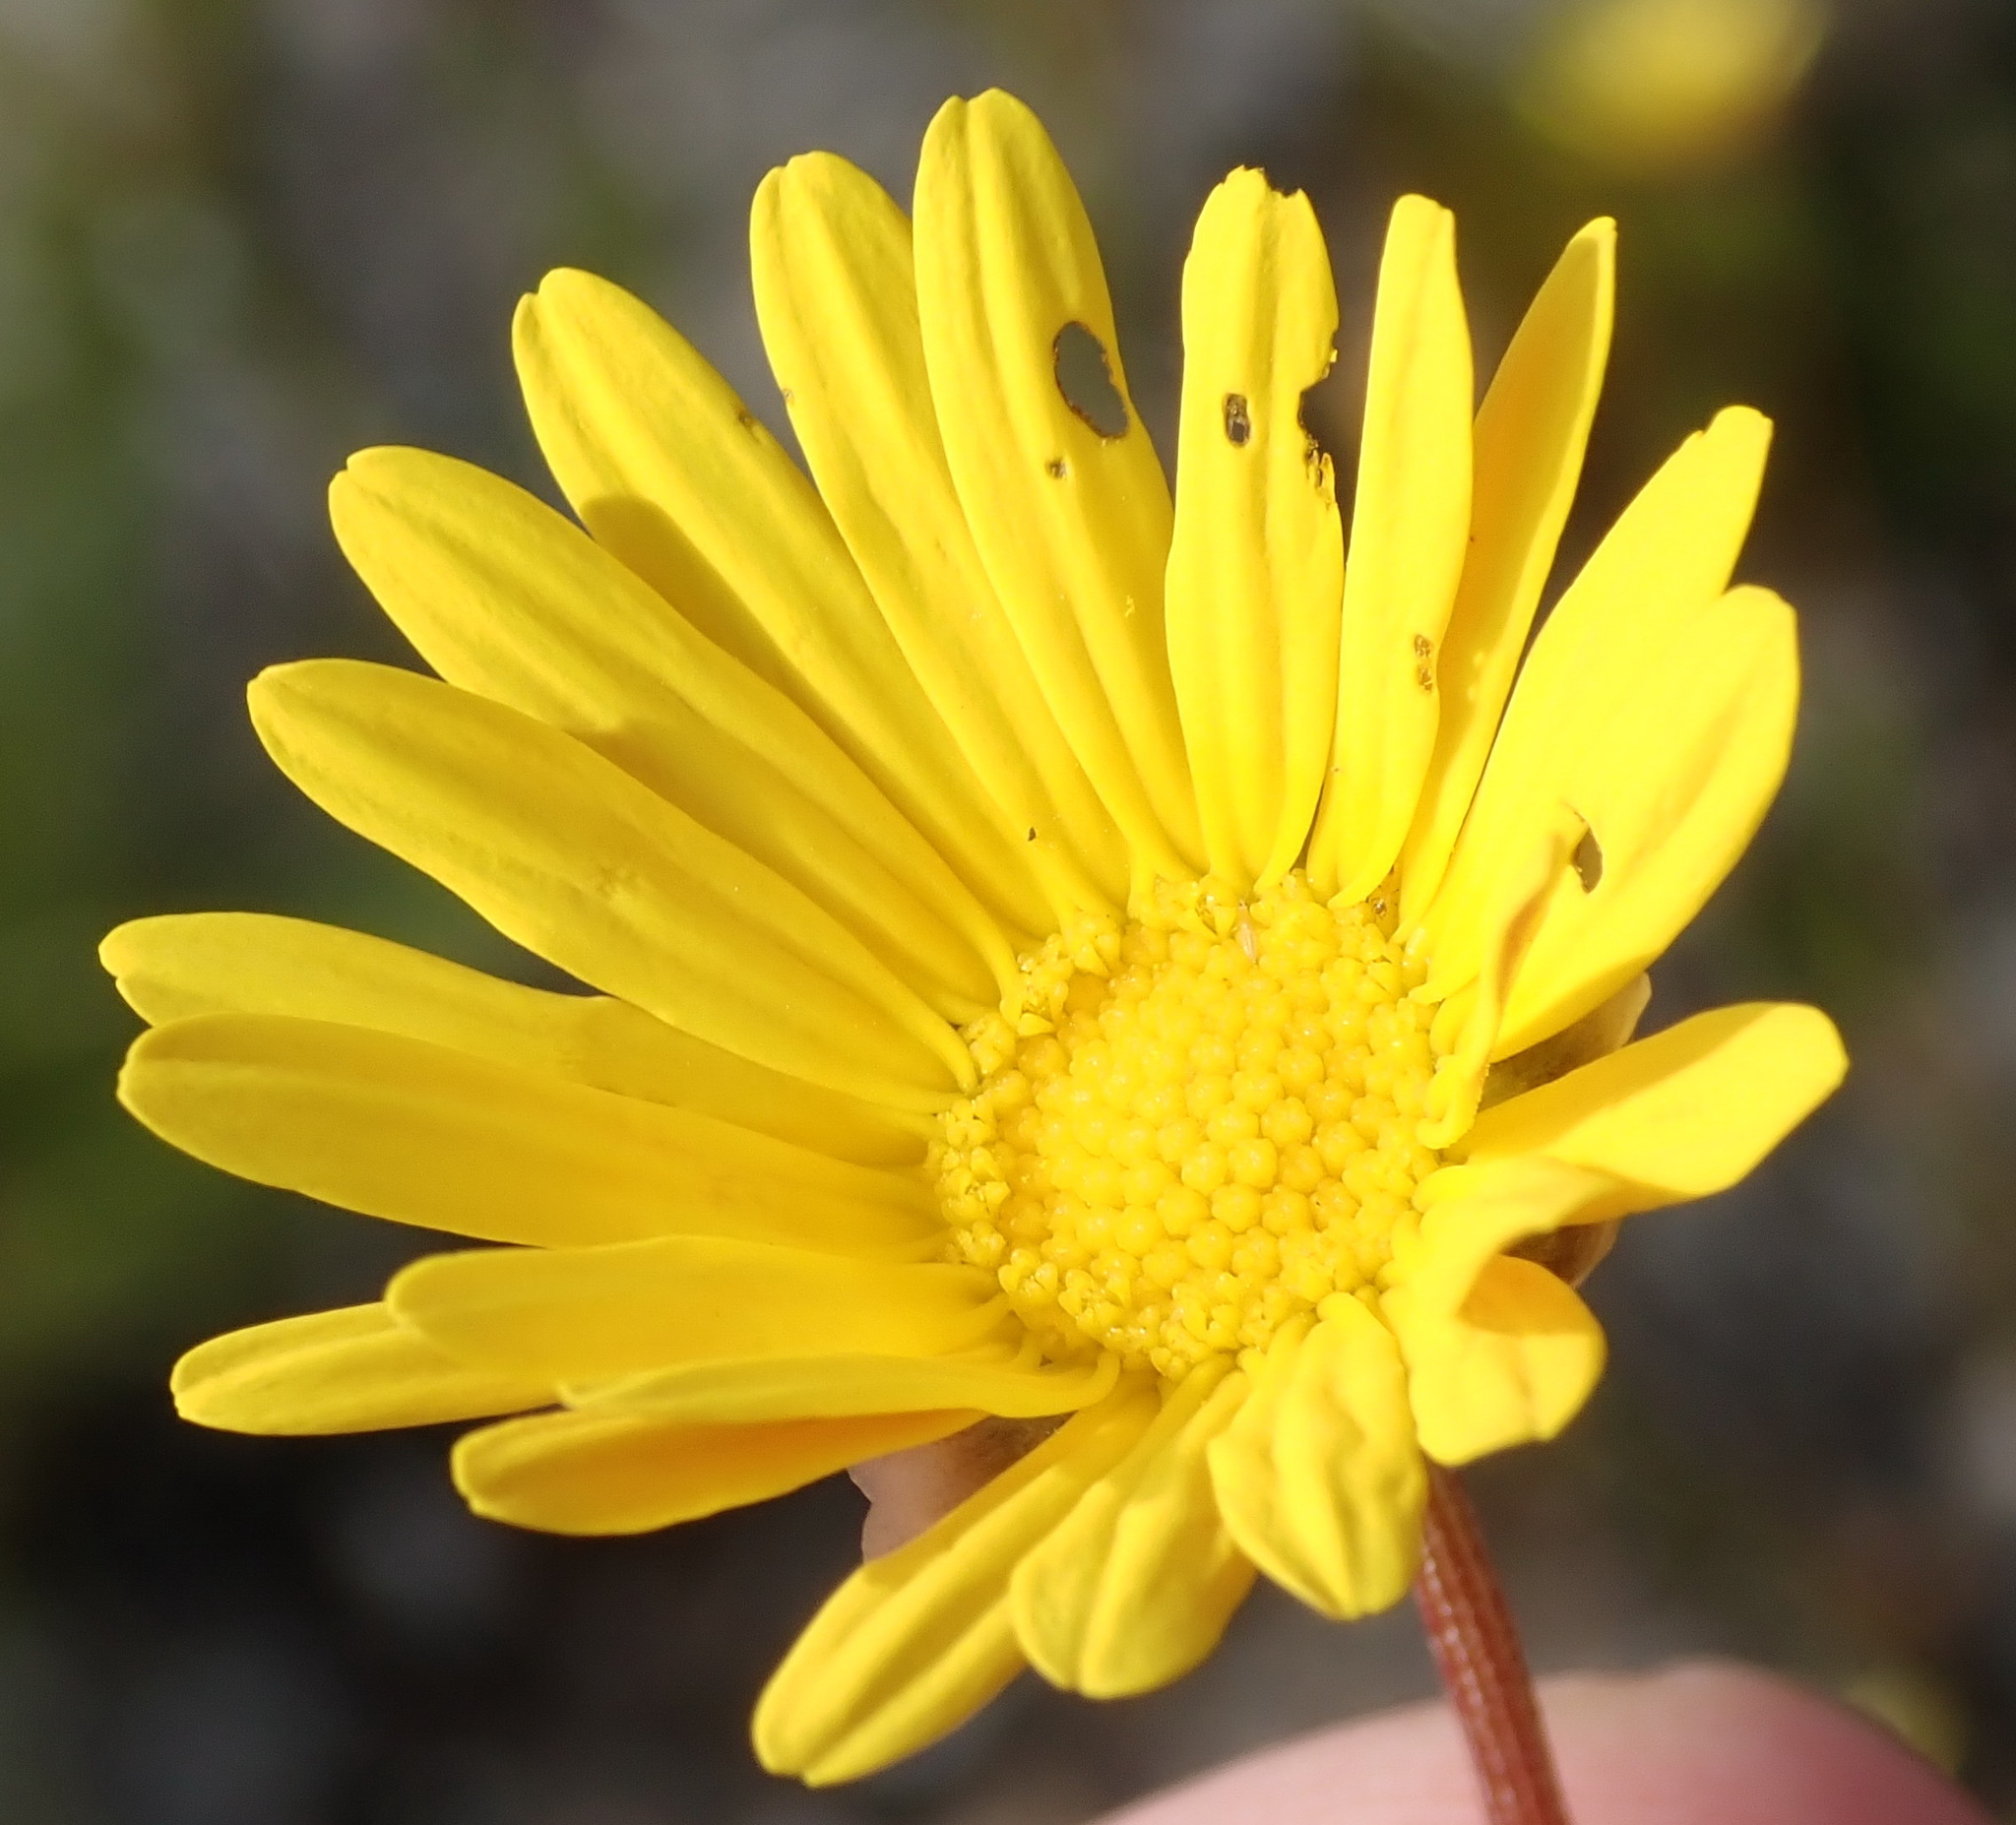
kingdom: Plantae
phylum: Tracheophyta
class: Magnoliopsida
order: Asterales
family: Asteraceae
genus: Ursinia
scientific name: Ursinia paleacea
